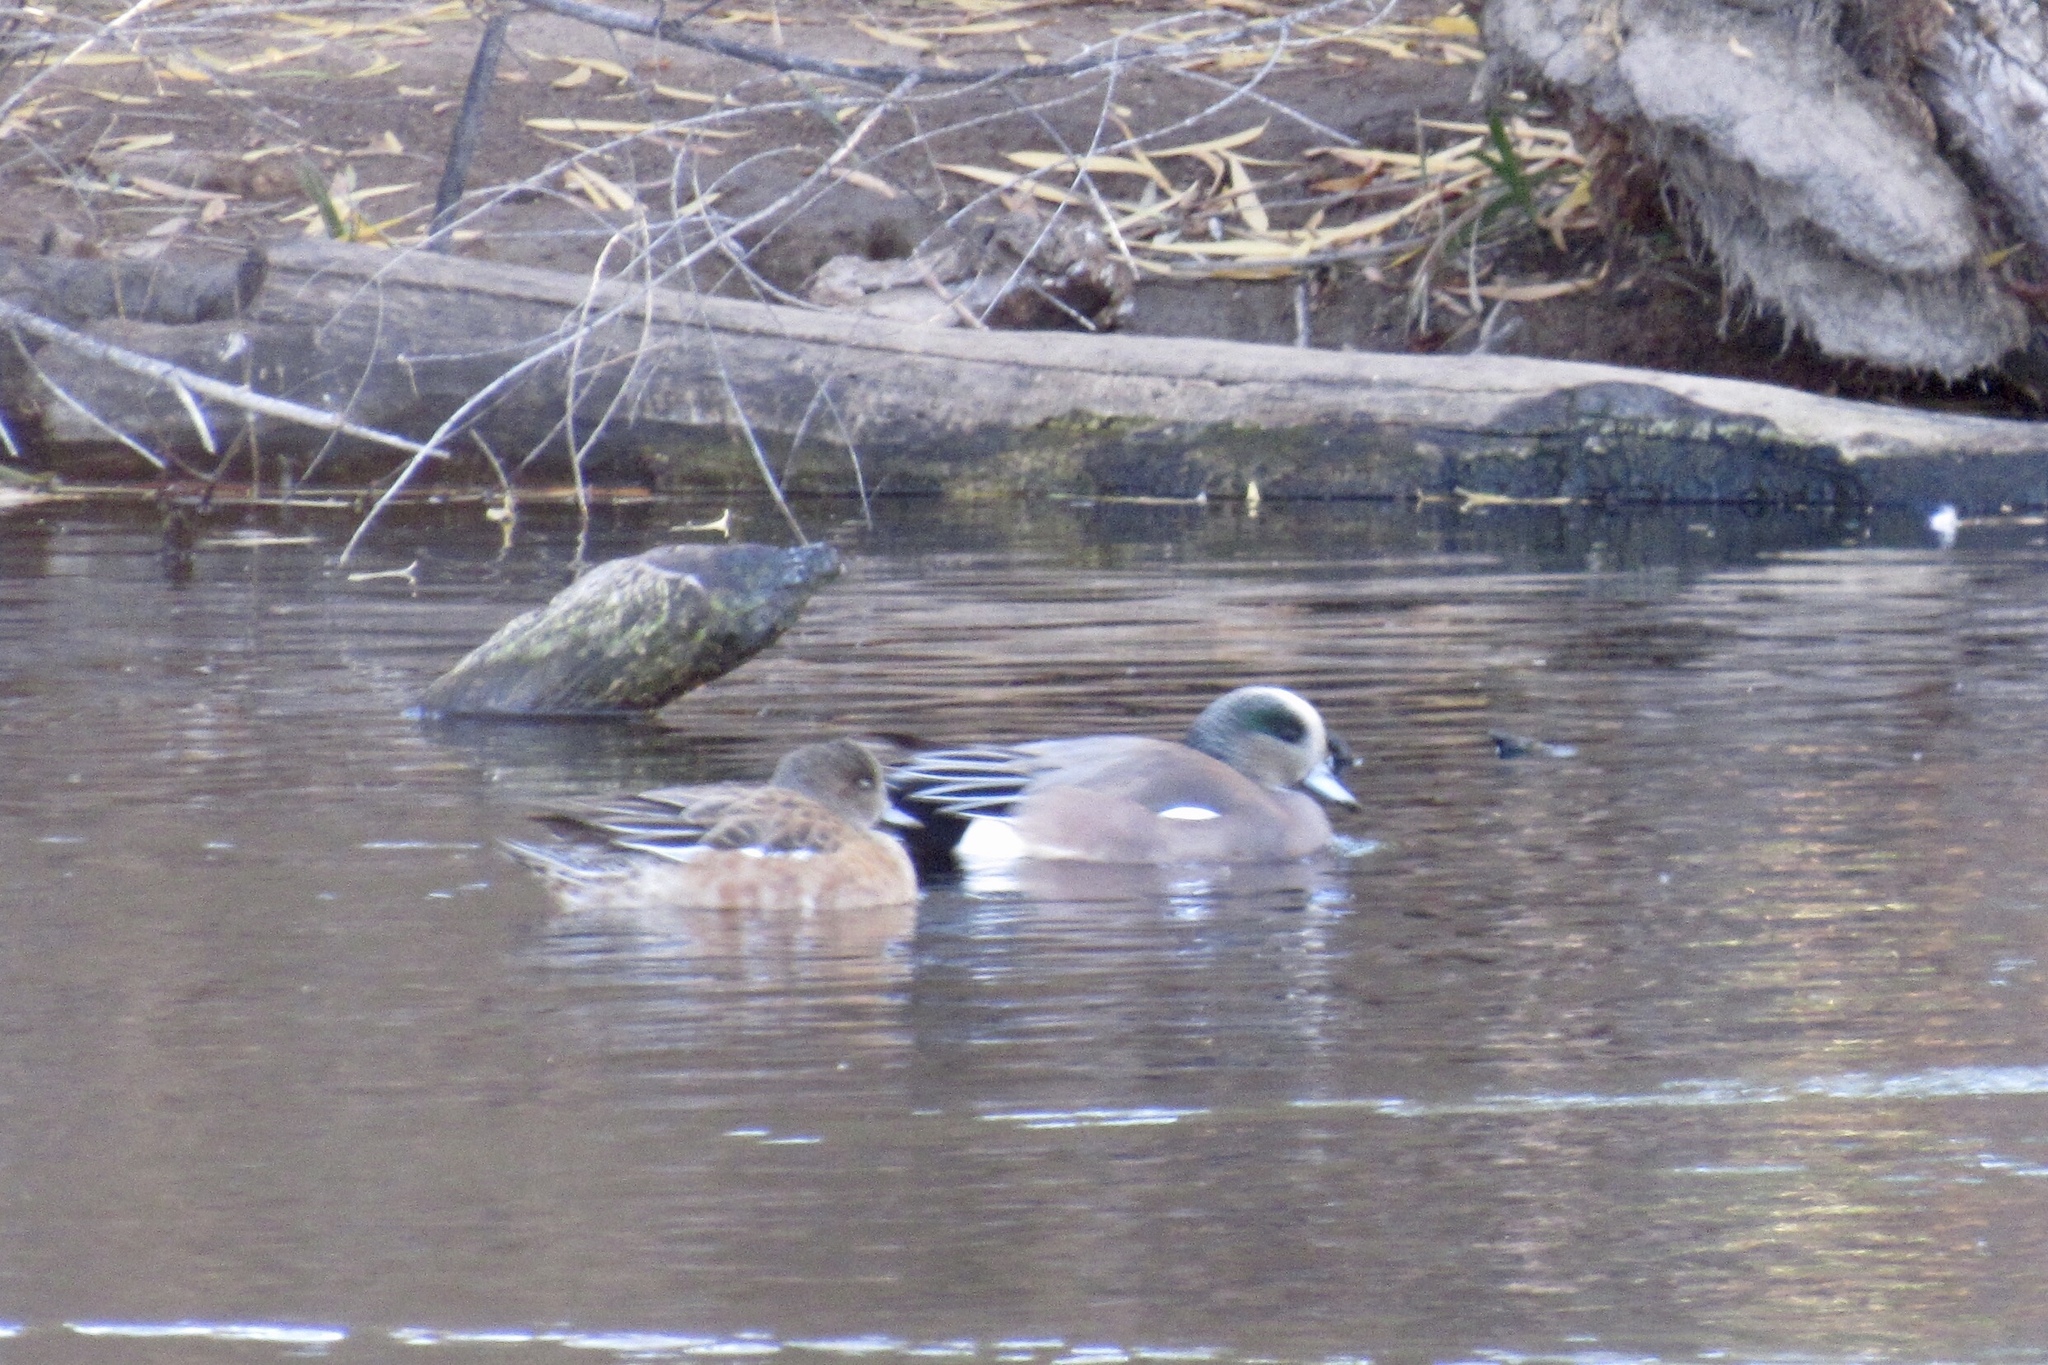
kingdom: Animalia
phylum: Chordata
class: Aves
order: Anseriformes
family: Anatidae
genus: Mareca
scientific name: Mareca americana
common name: American wigeon
